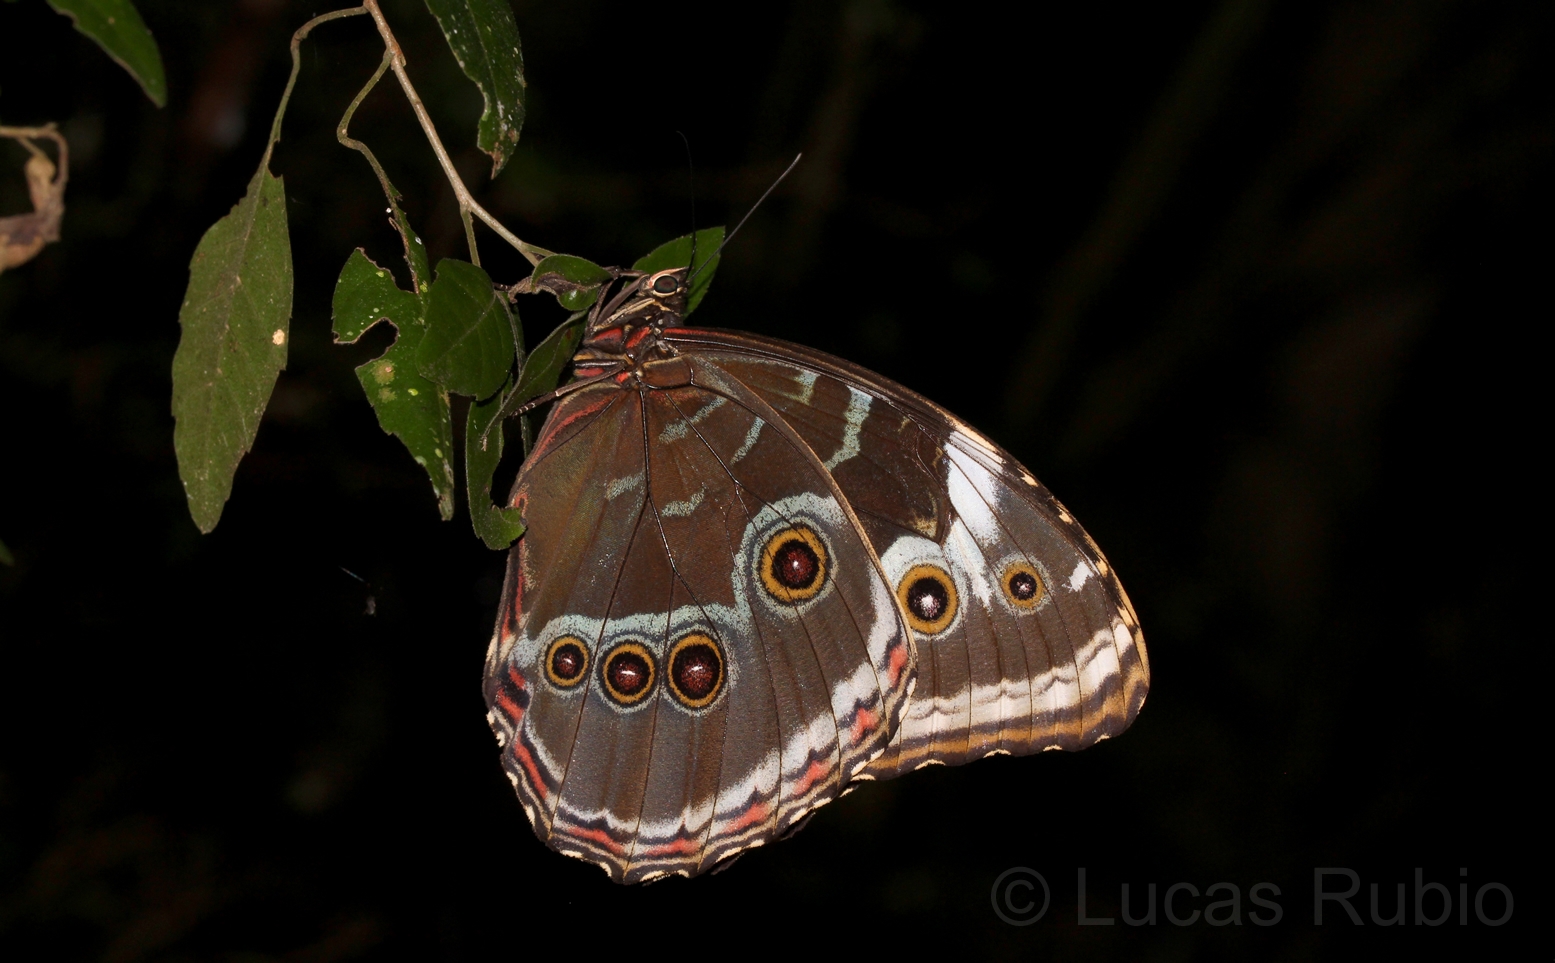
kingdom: Animalia
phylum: Arthropoda
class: Insecta
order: Lepidoptera
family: Nymphalidae
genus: Morpho
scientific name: Morpho helenor
